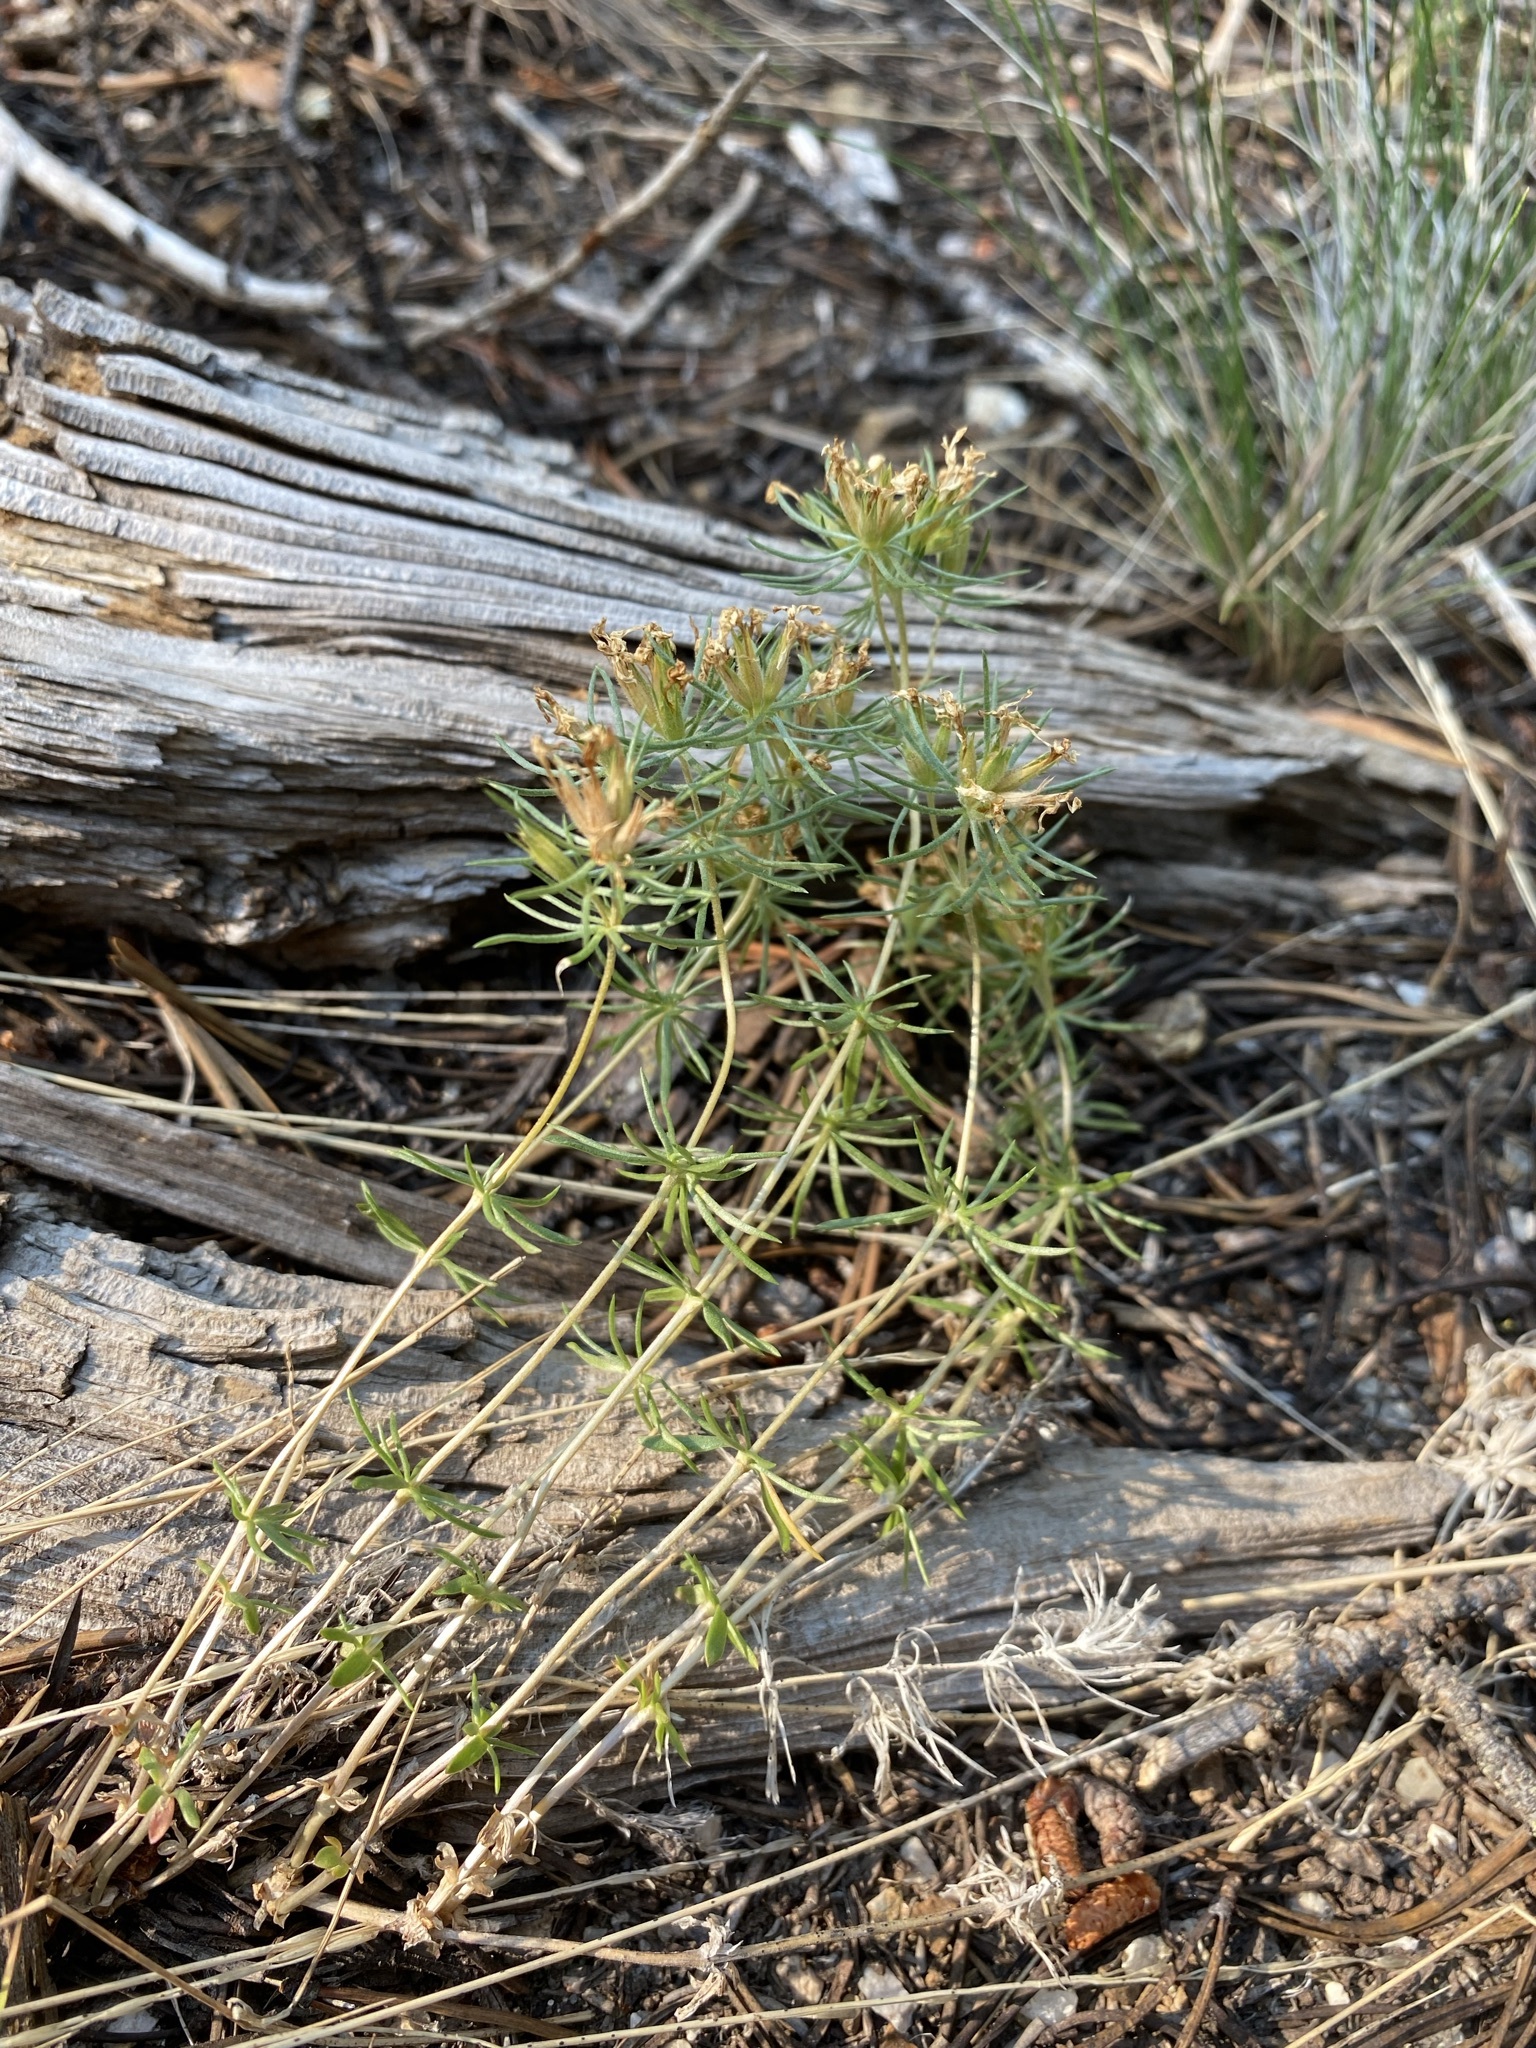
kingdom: Plantae
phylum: Tracheophyta
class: Magnoliopsida
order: Ericales
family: Polemoniaceae
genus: Leptosiphon
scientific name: Leptosiphon nuttallii
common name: Nuttall's linanthus
